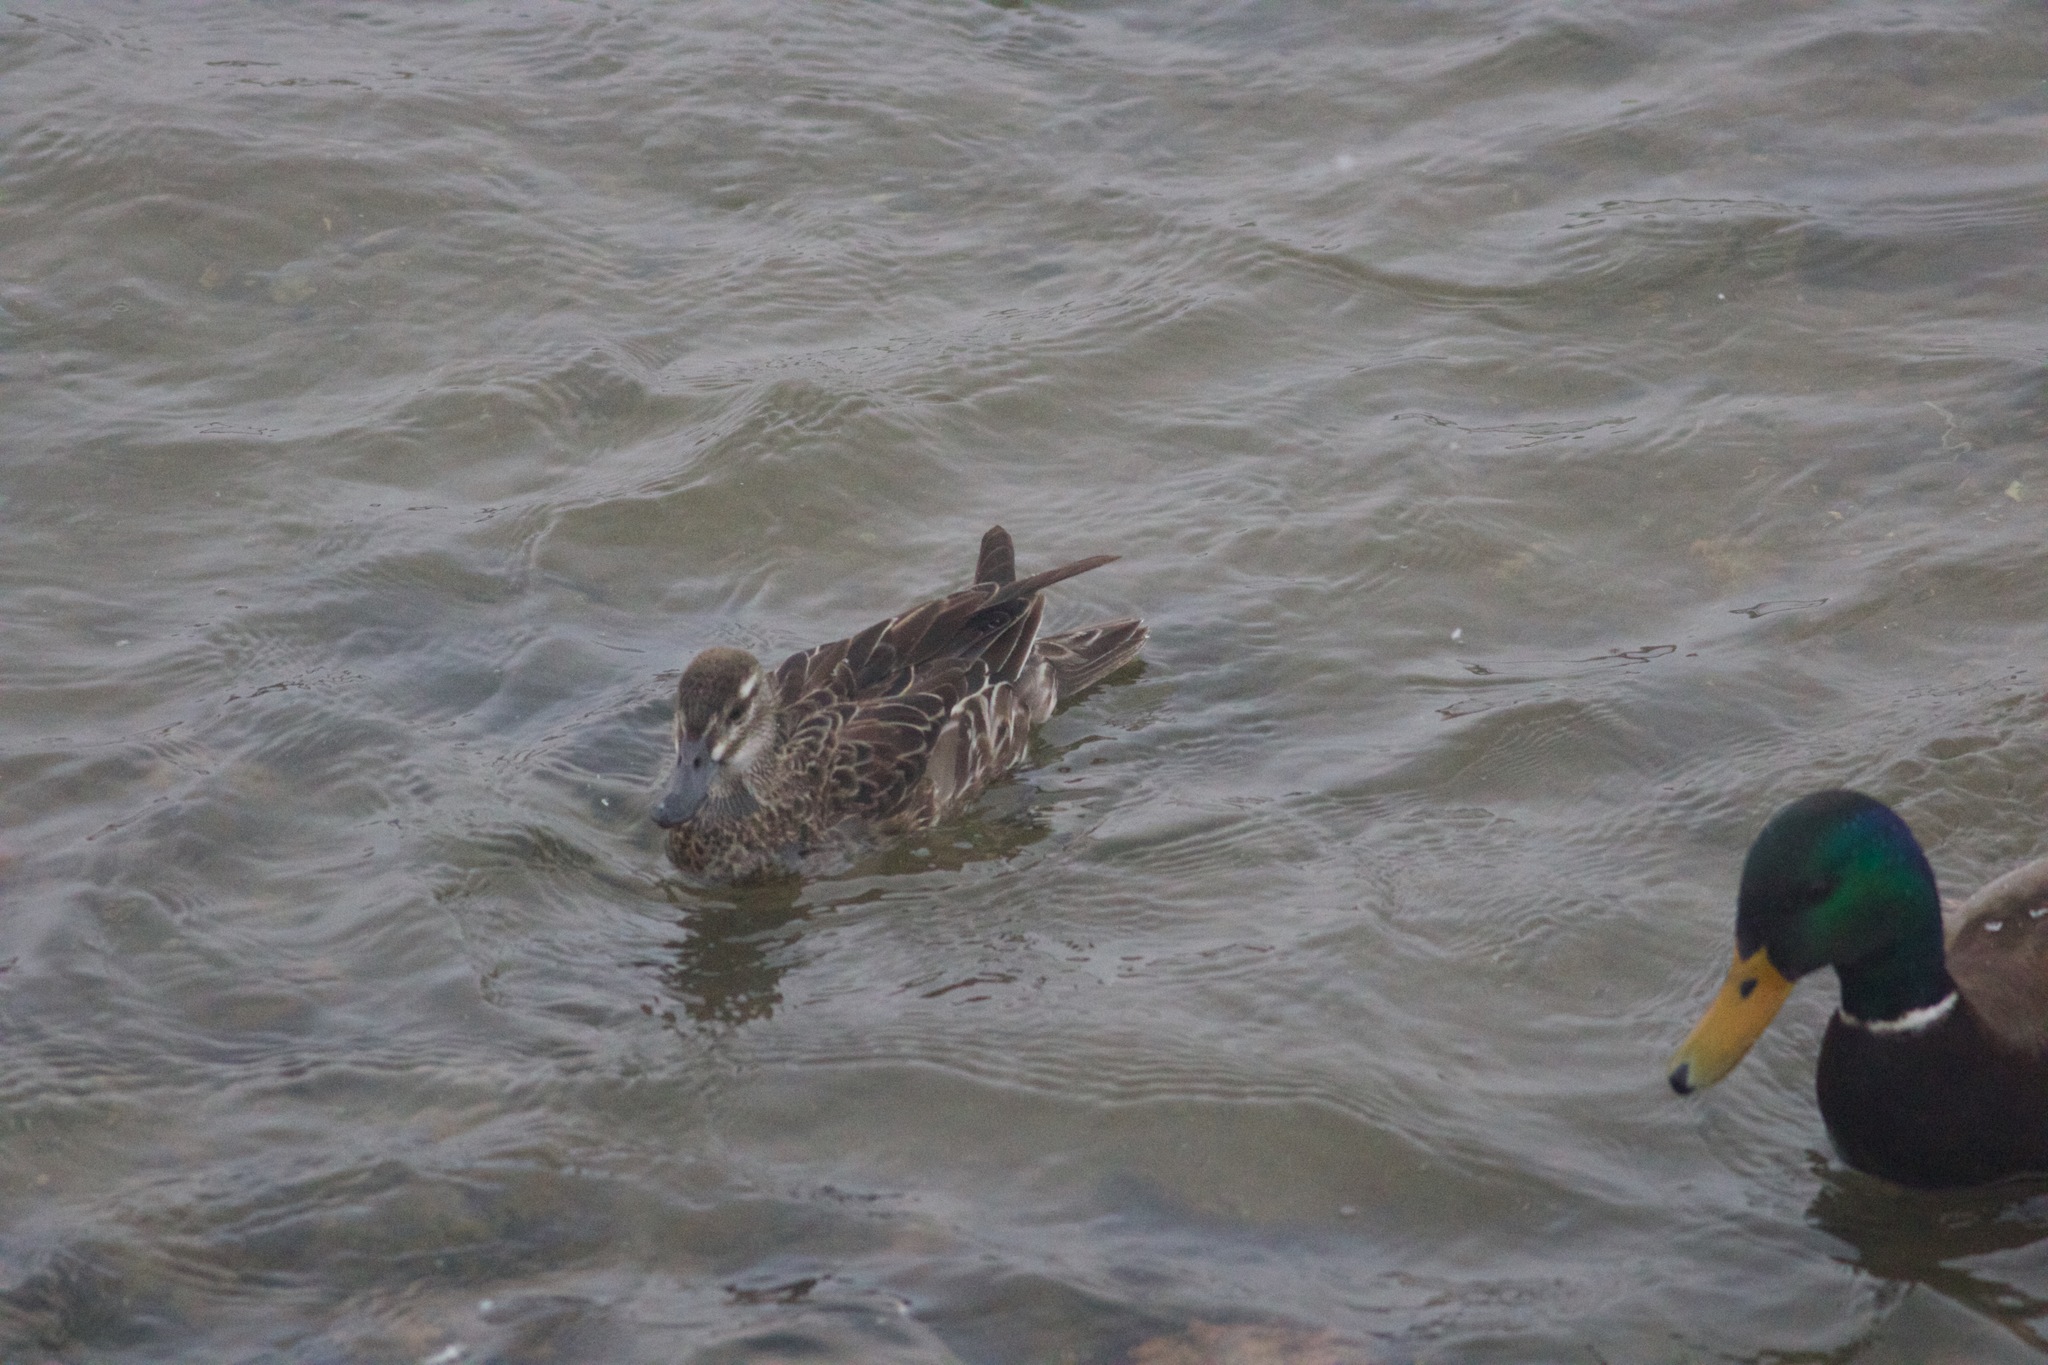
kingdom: Animalia
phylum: Chordata
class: Aves
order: Anseriformes
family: Anatidae
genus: Spatula
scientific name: Spatula querquedula
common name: Garganey
